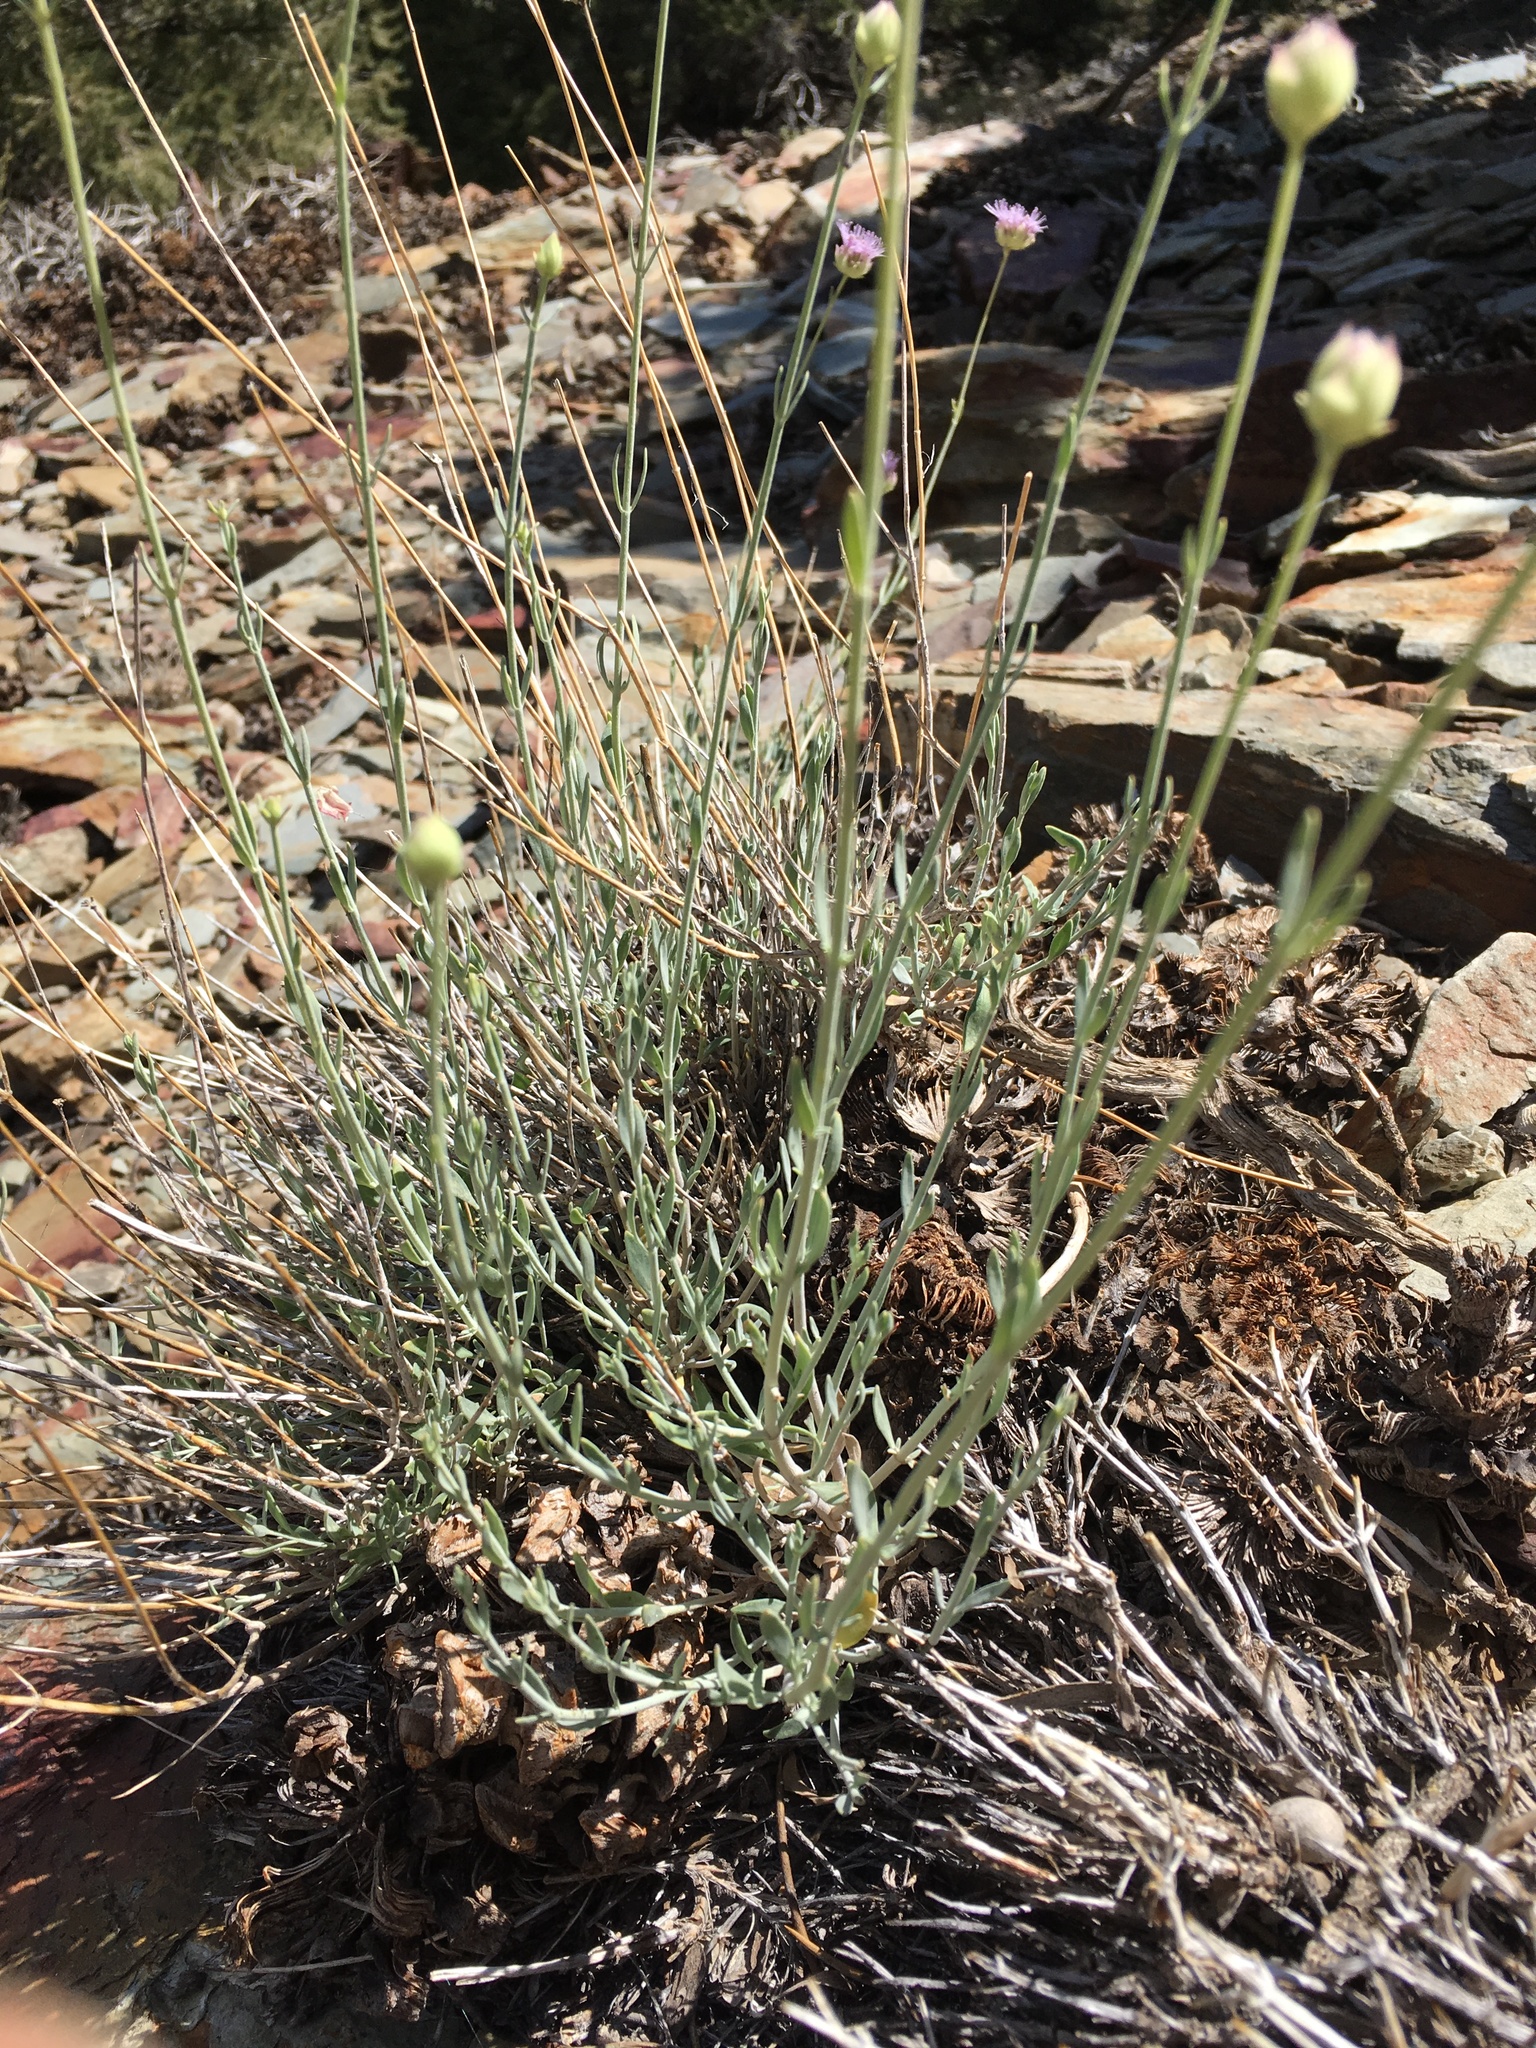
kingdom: Plantae
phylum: Tracheophyta
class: Magnoliopsida
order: Lamiales
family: Lamiaceae
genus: Monardella
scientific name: Monardella linoides
